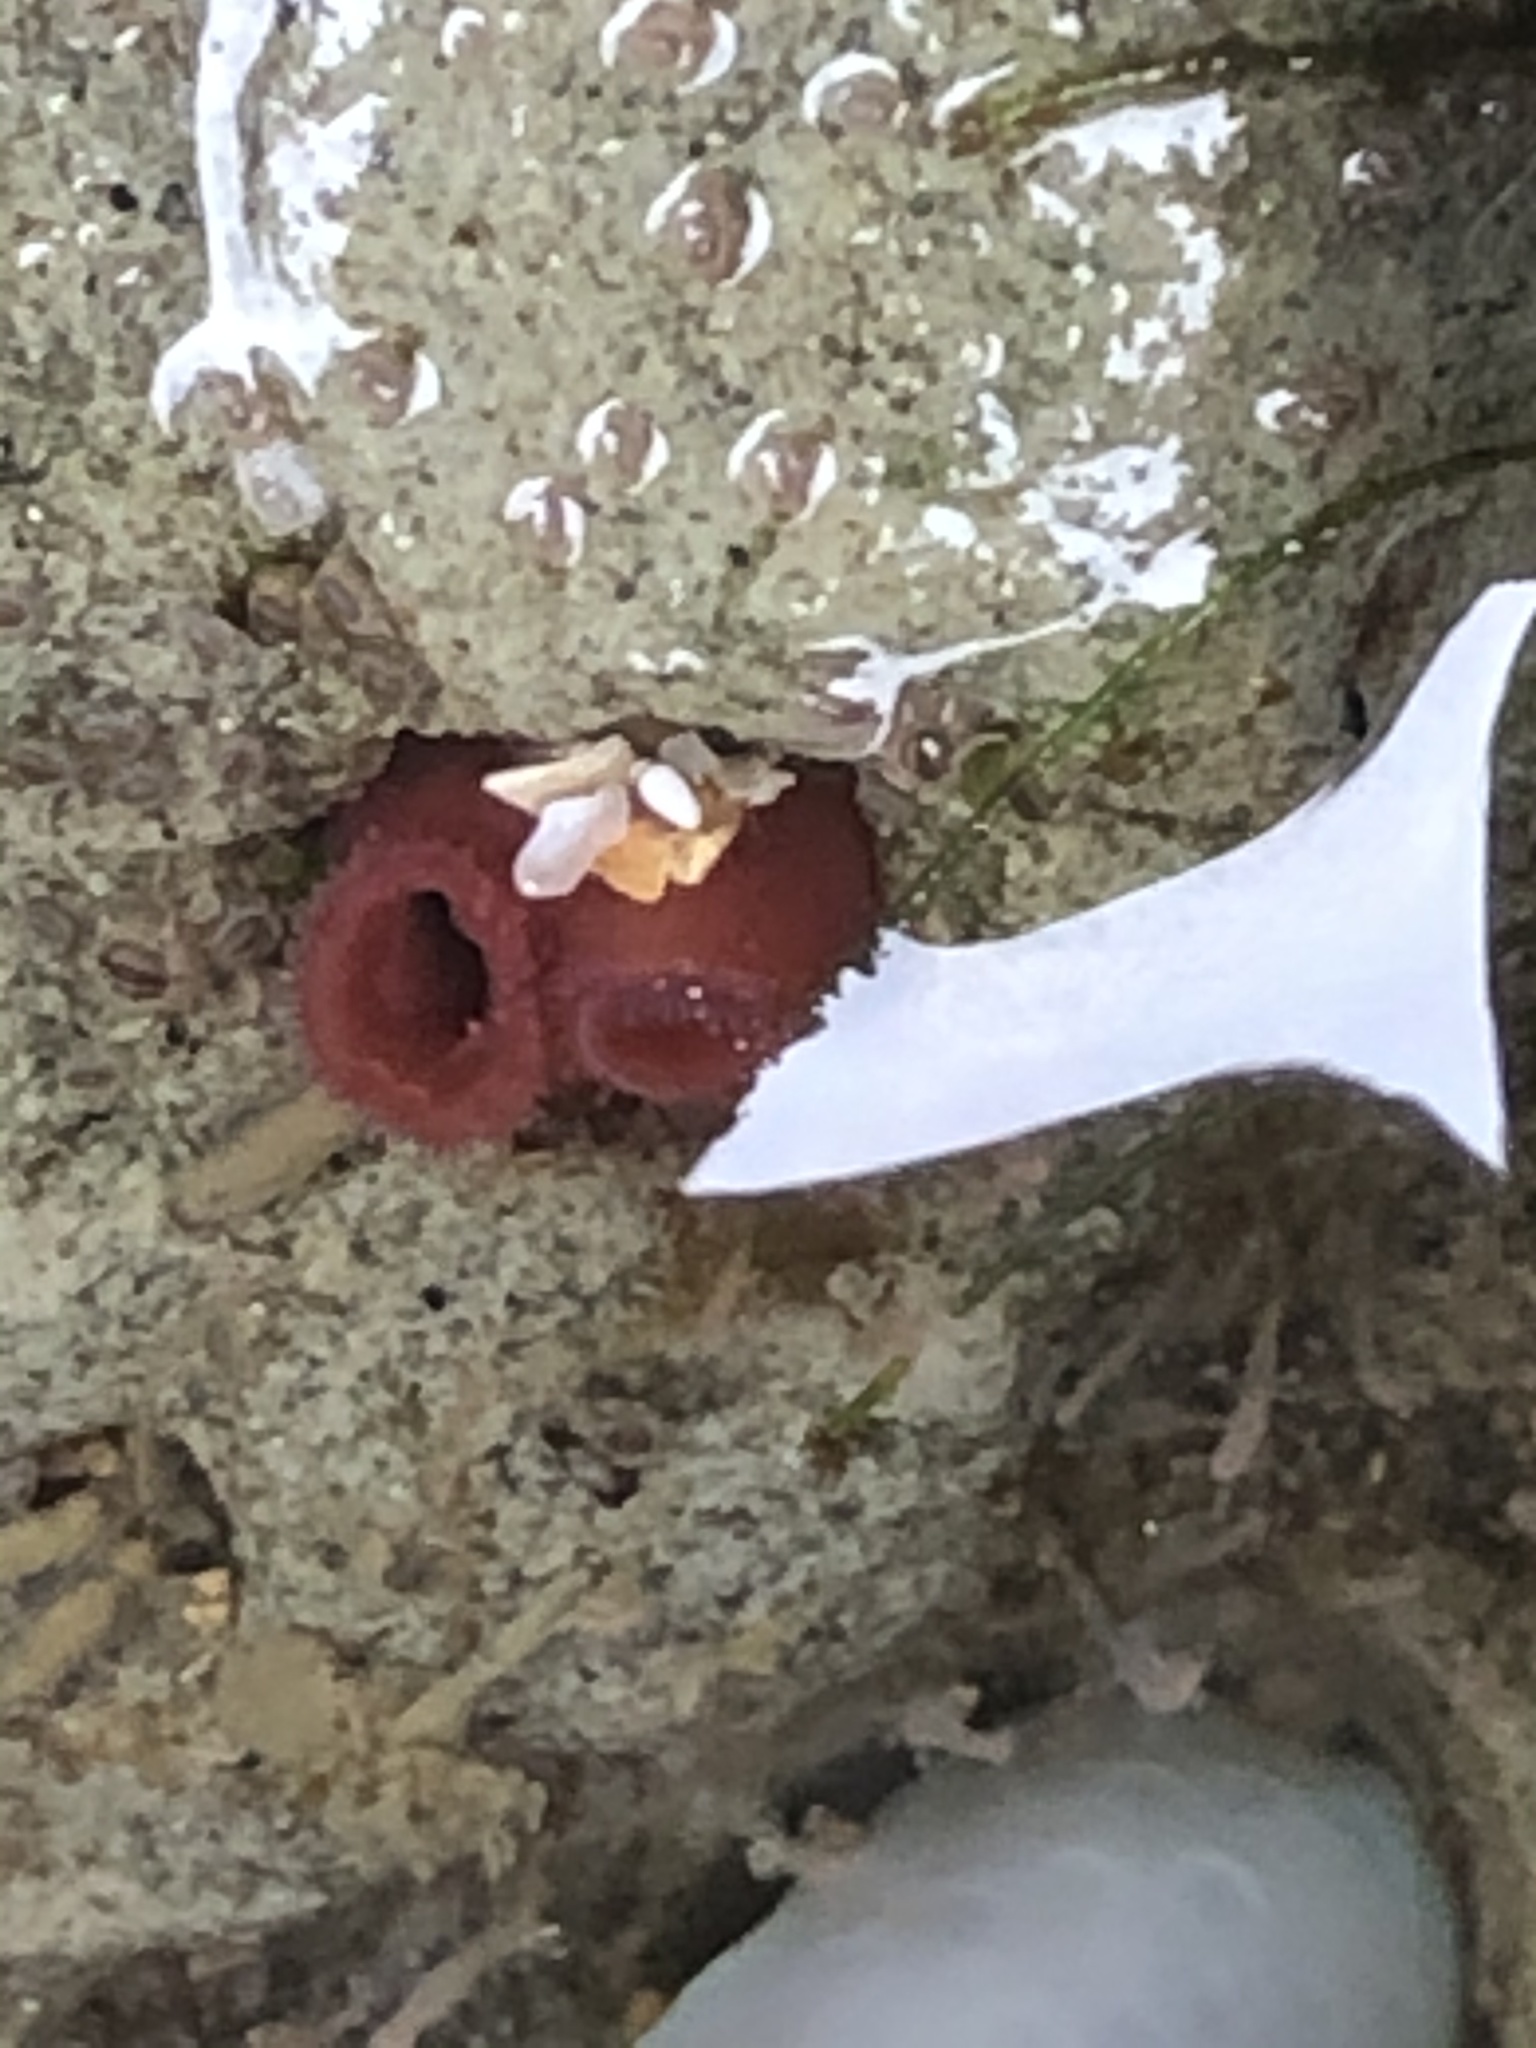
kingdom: Animalia
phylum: Mollusca
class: Bivalvia
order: Adapedonta
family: Hiatellidae
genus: Hiatella
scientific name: Hiatella arctica
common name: Arctic hiatella
